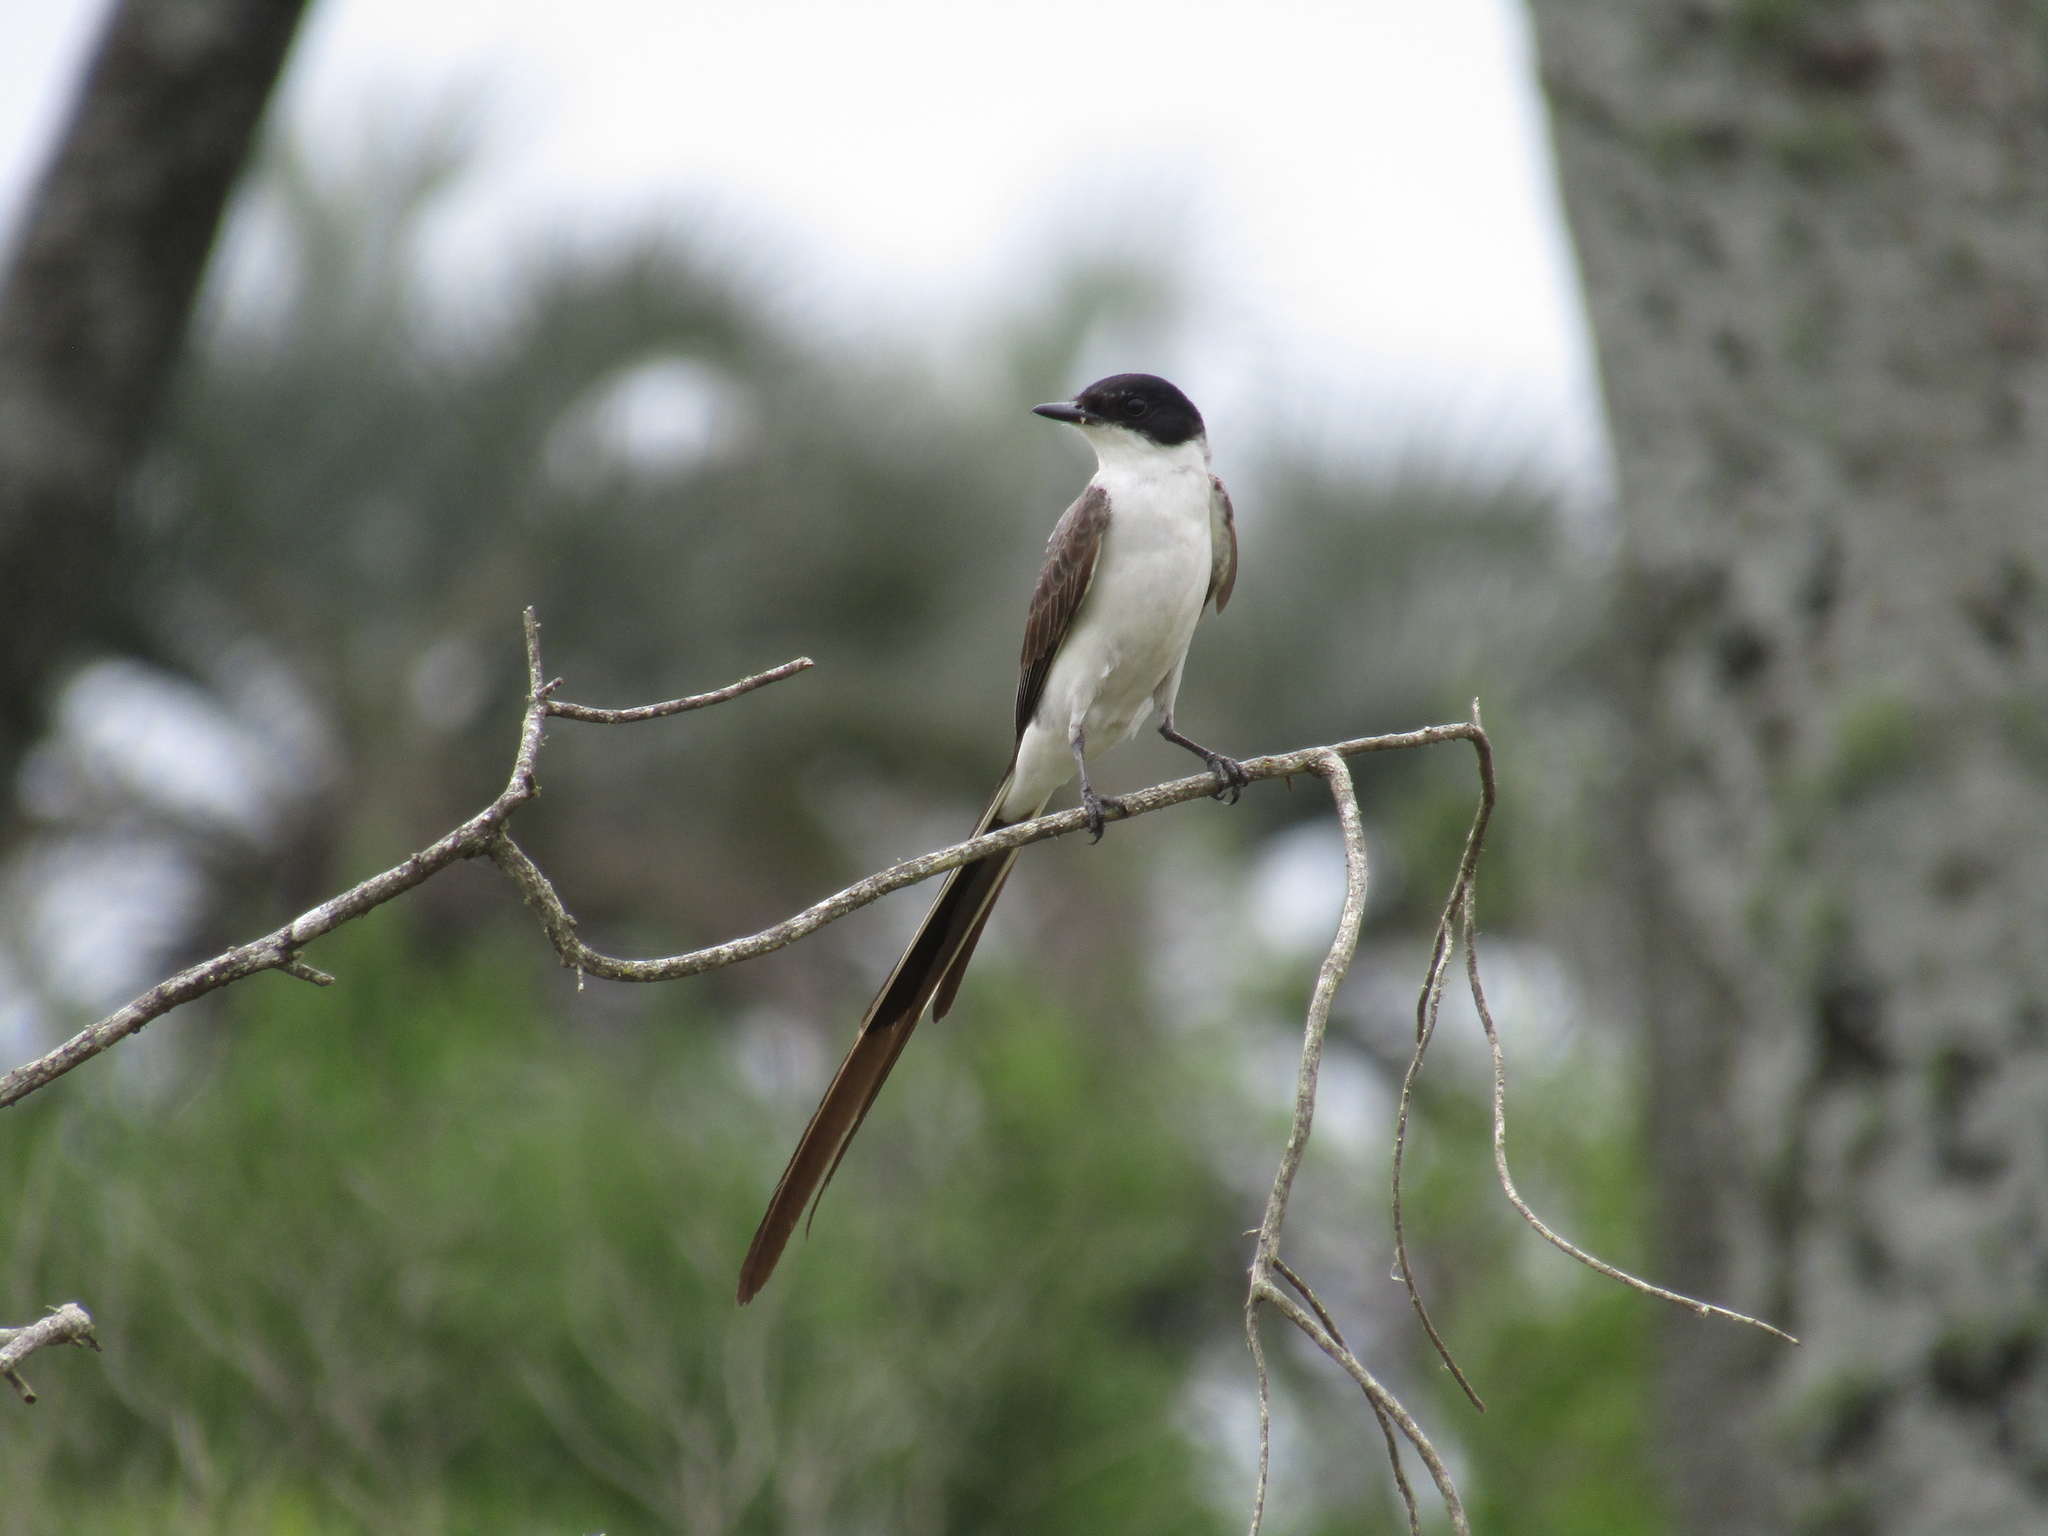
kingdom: Animalia
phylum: Chordata
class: Aves
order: Passeriformes
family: Tyrannidae
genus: Tyrannus
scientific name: Tyrannus savana
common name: Fork-tailed flycatcher
